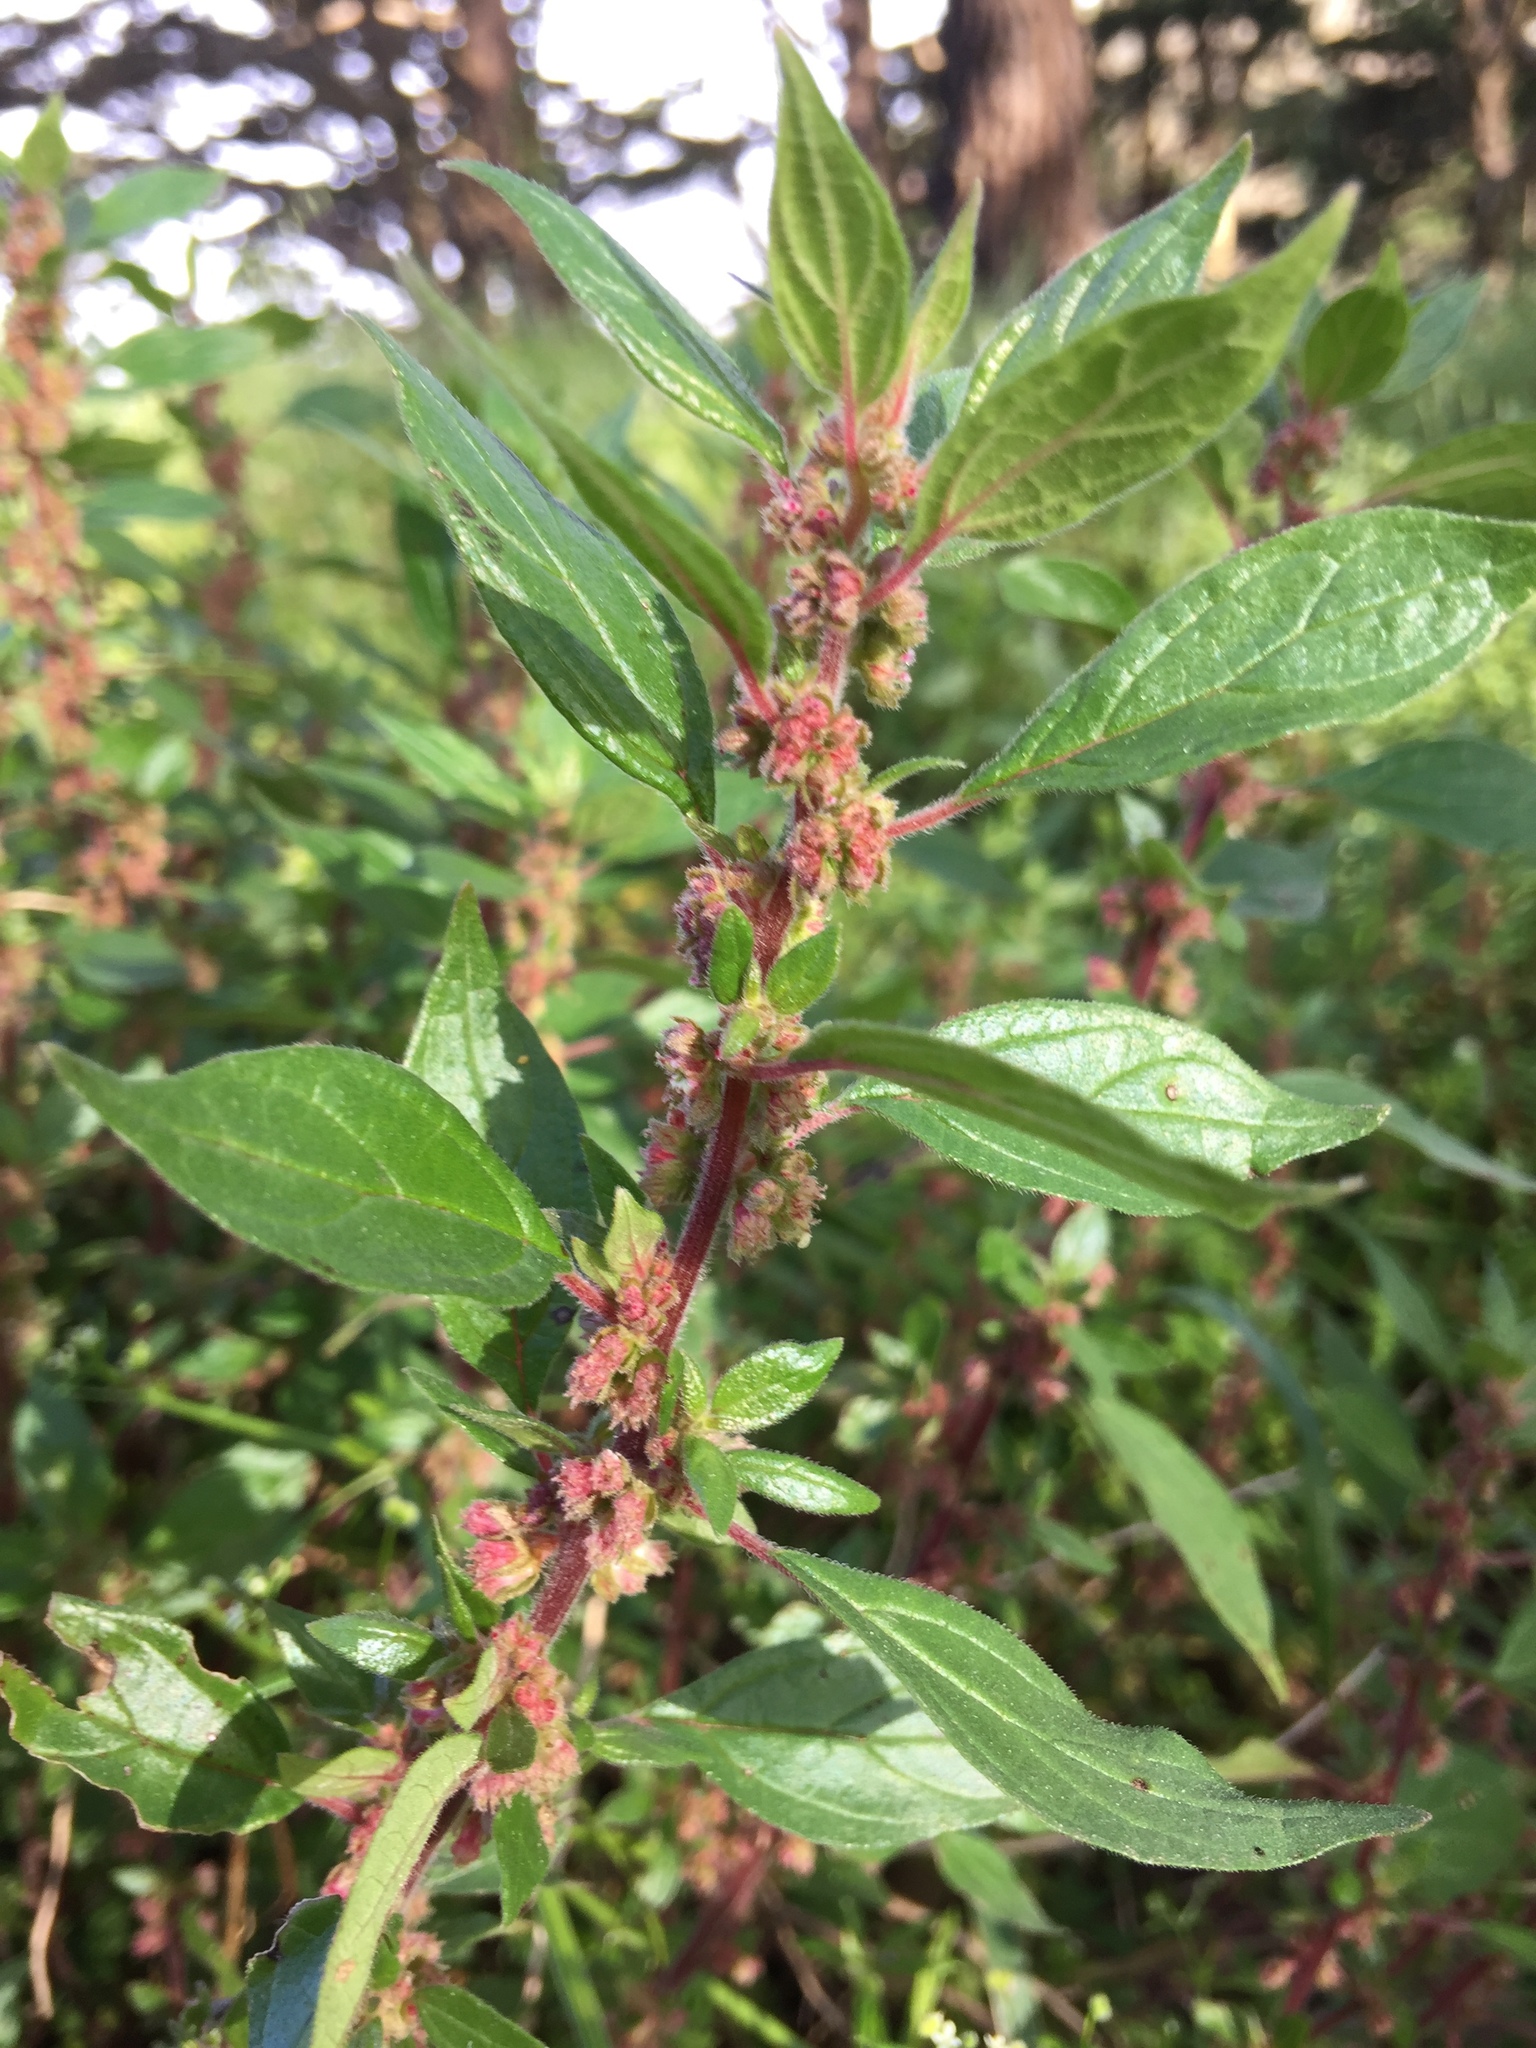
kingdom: Plantae
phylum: Tracheophyta
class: Magnoliopsida
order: Rosales
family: Urticaceae
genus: Parietaria
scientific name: Parietaria judaica
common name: Pellitory-of-the-wall
